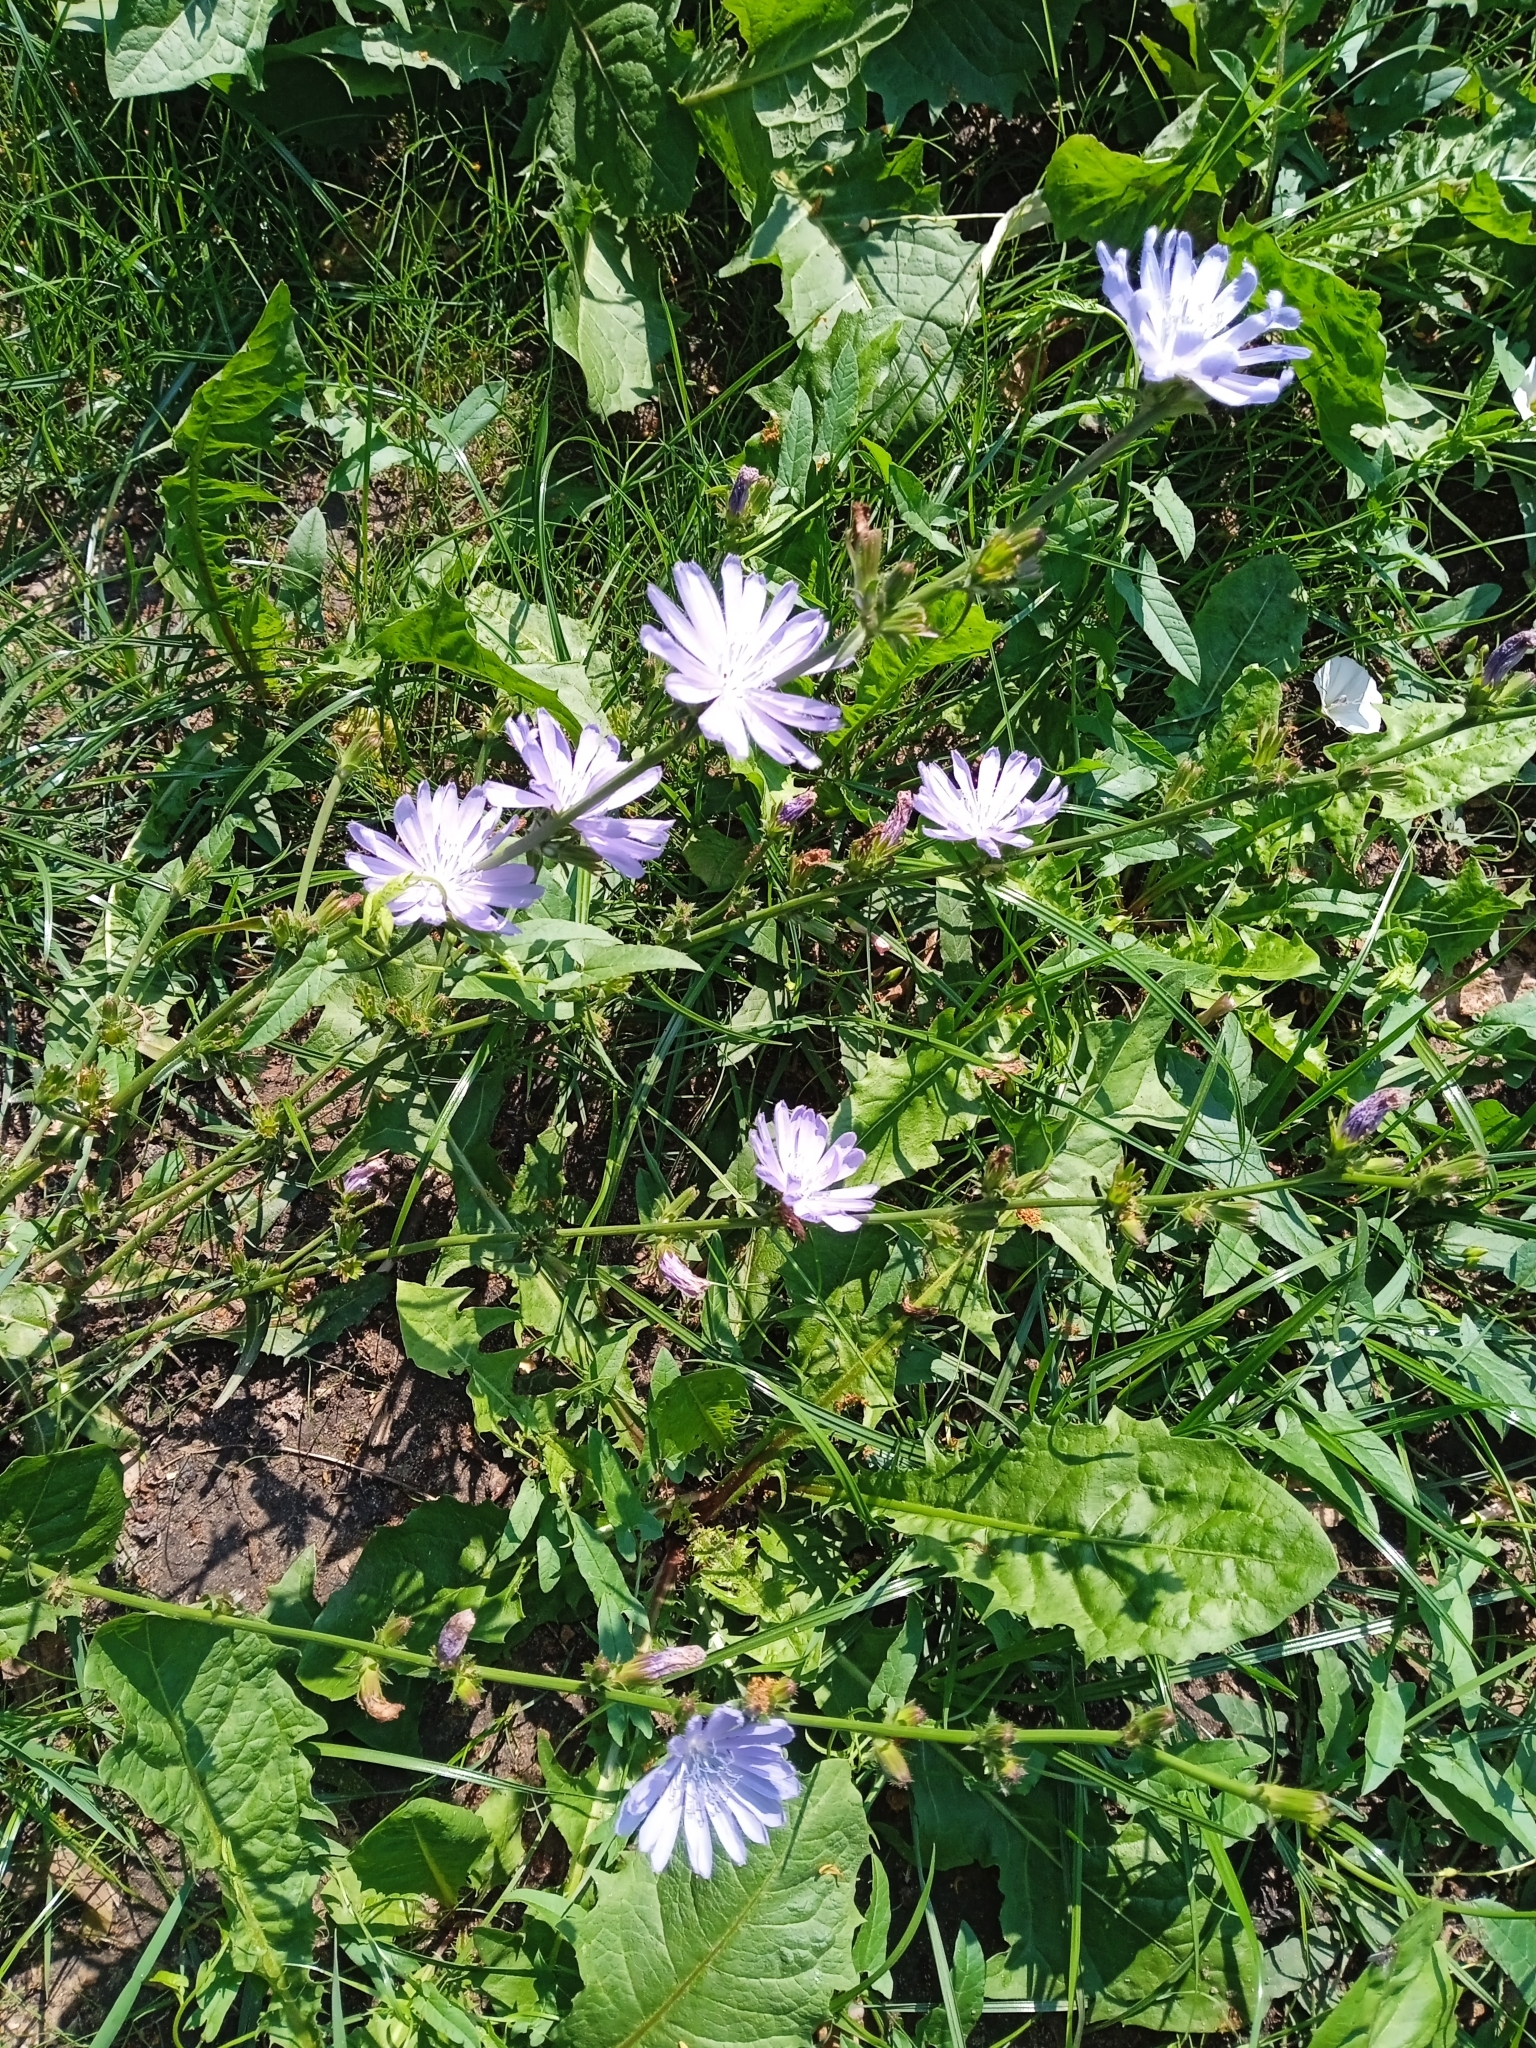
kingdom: Plantae
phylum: Tracheophyta
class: Magnoliopsida
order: Asterales
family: Asteraceae
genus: Cichorium
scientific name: Cichorium intybus
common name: Chicory
